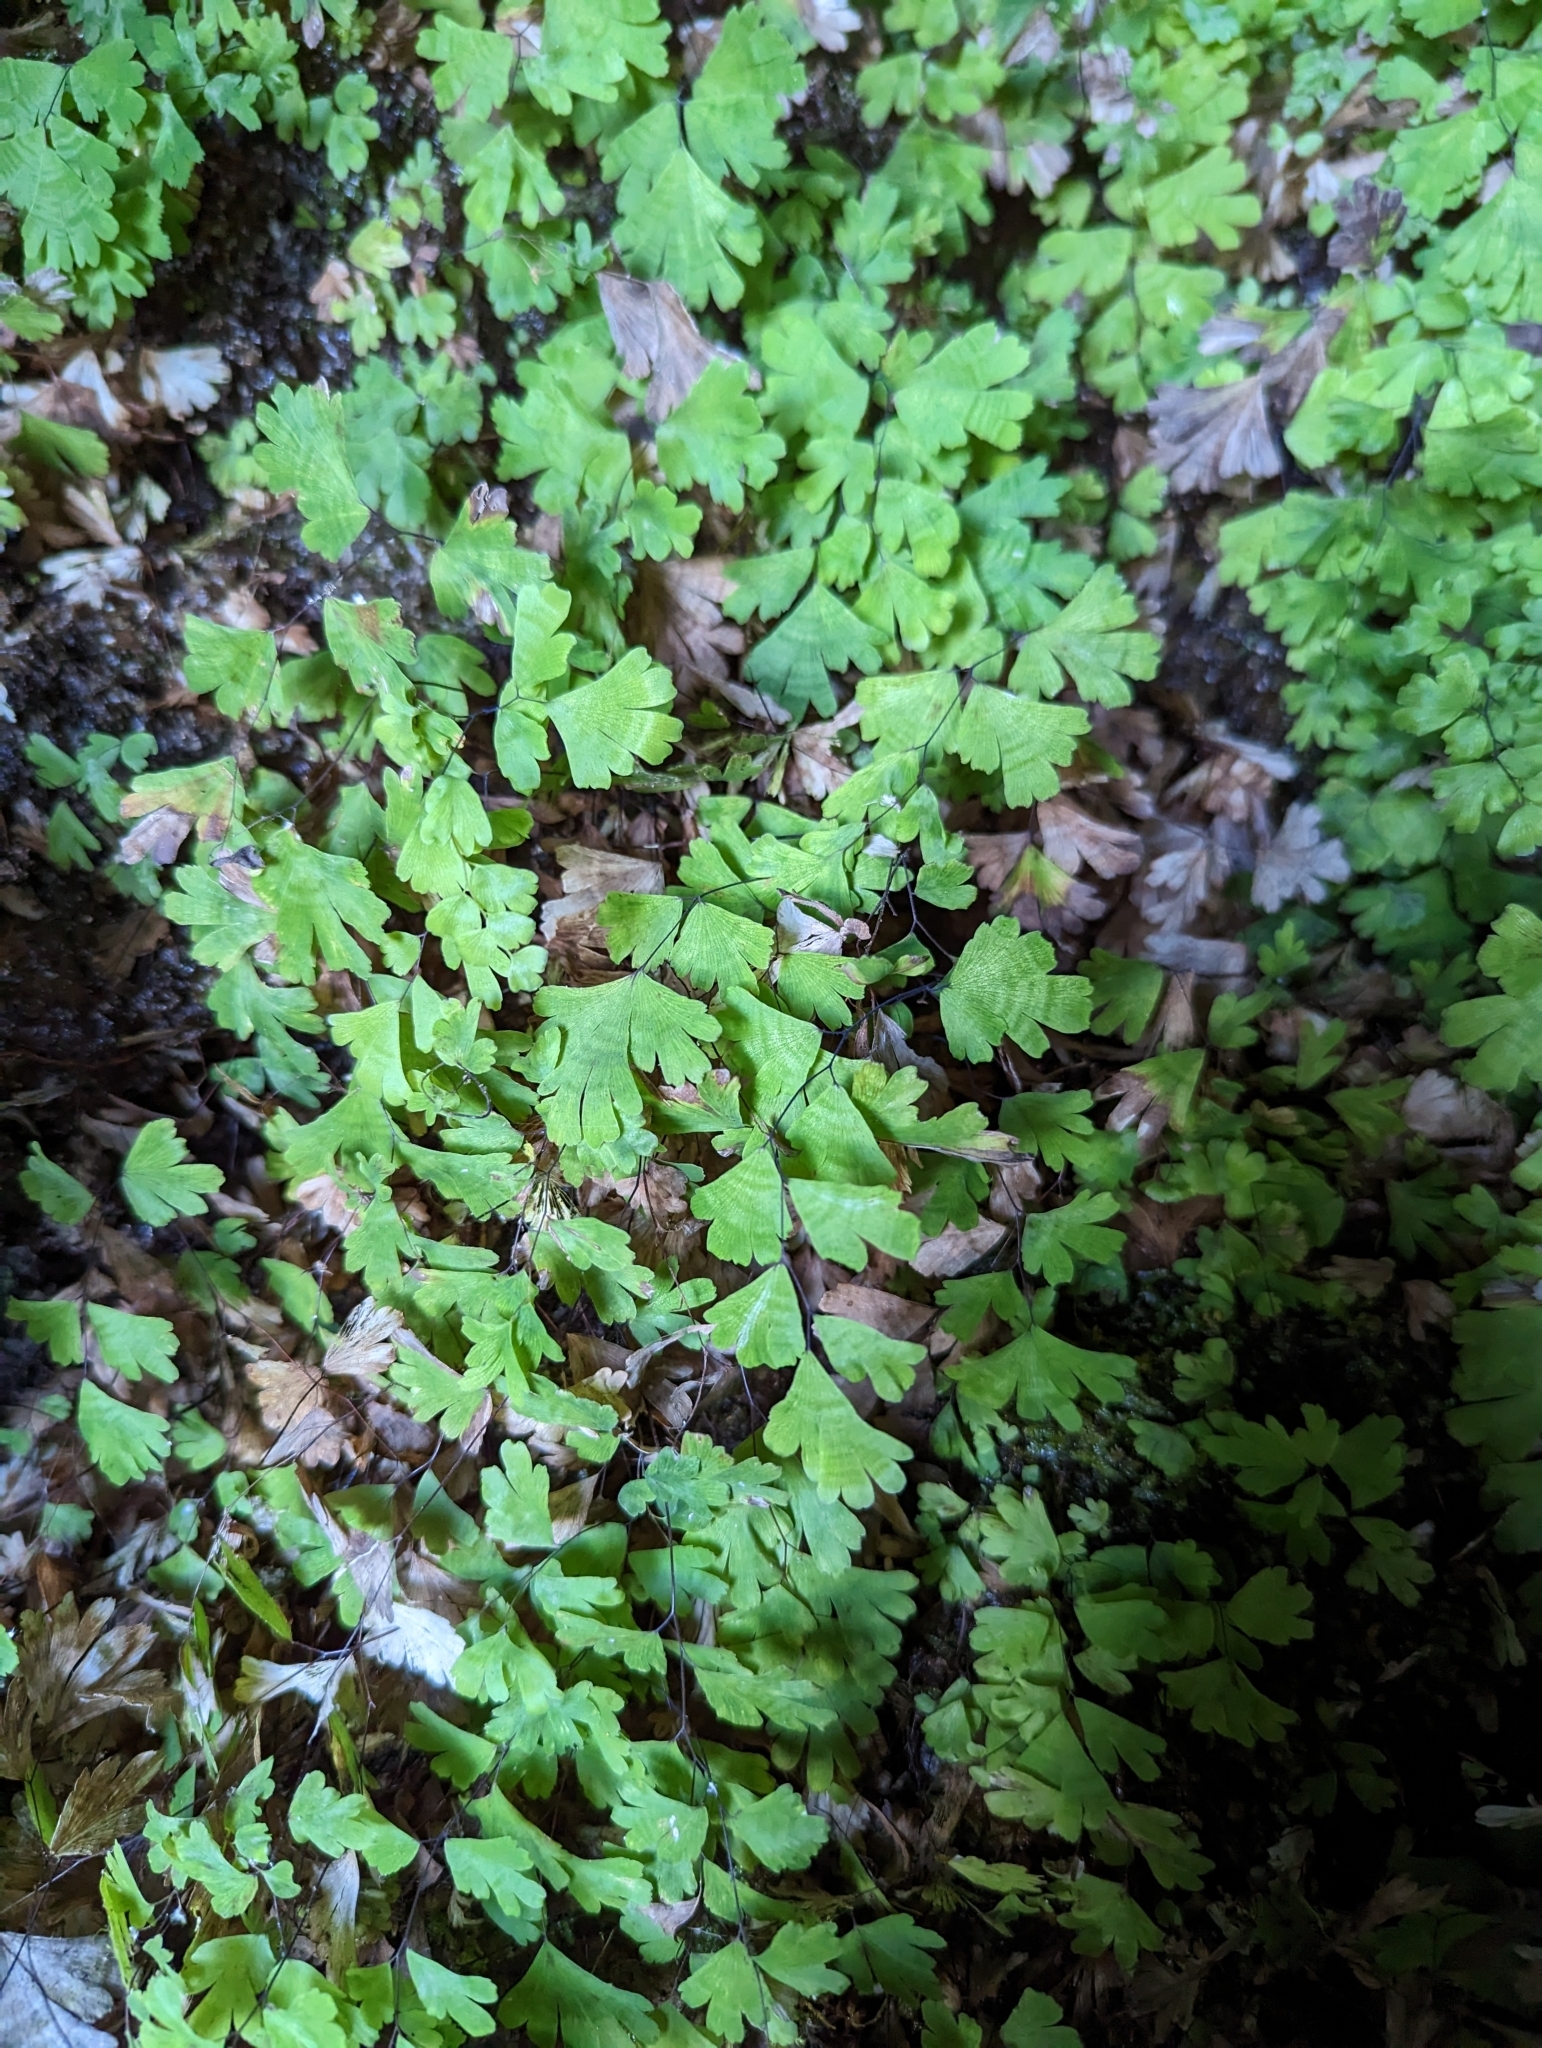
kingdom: Plantae
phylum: Tracheophyta
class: Polypodiopsida
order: Polypodiales
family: Pteridaceae
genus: Adiantum
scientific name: Adiantum capillus-veneris
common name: Maidenhair fern
